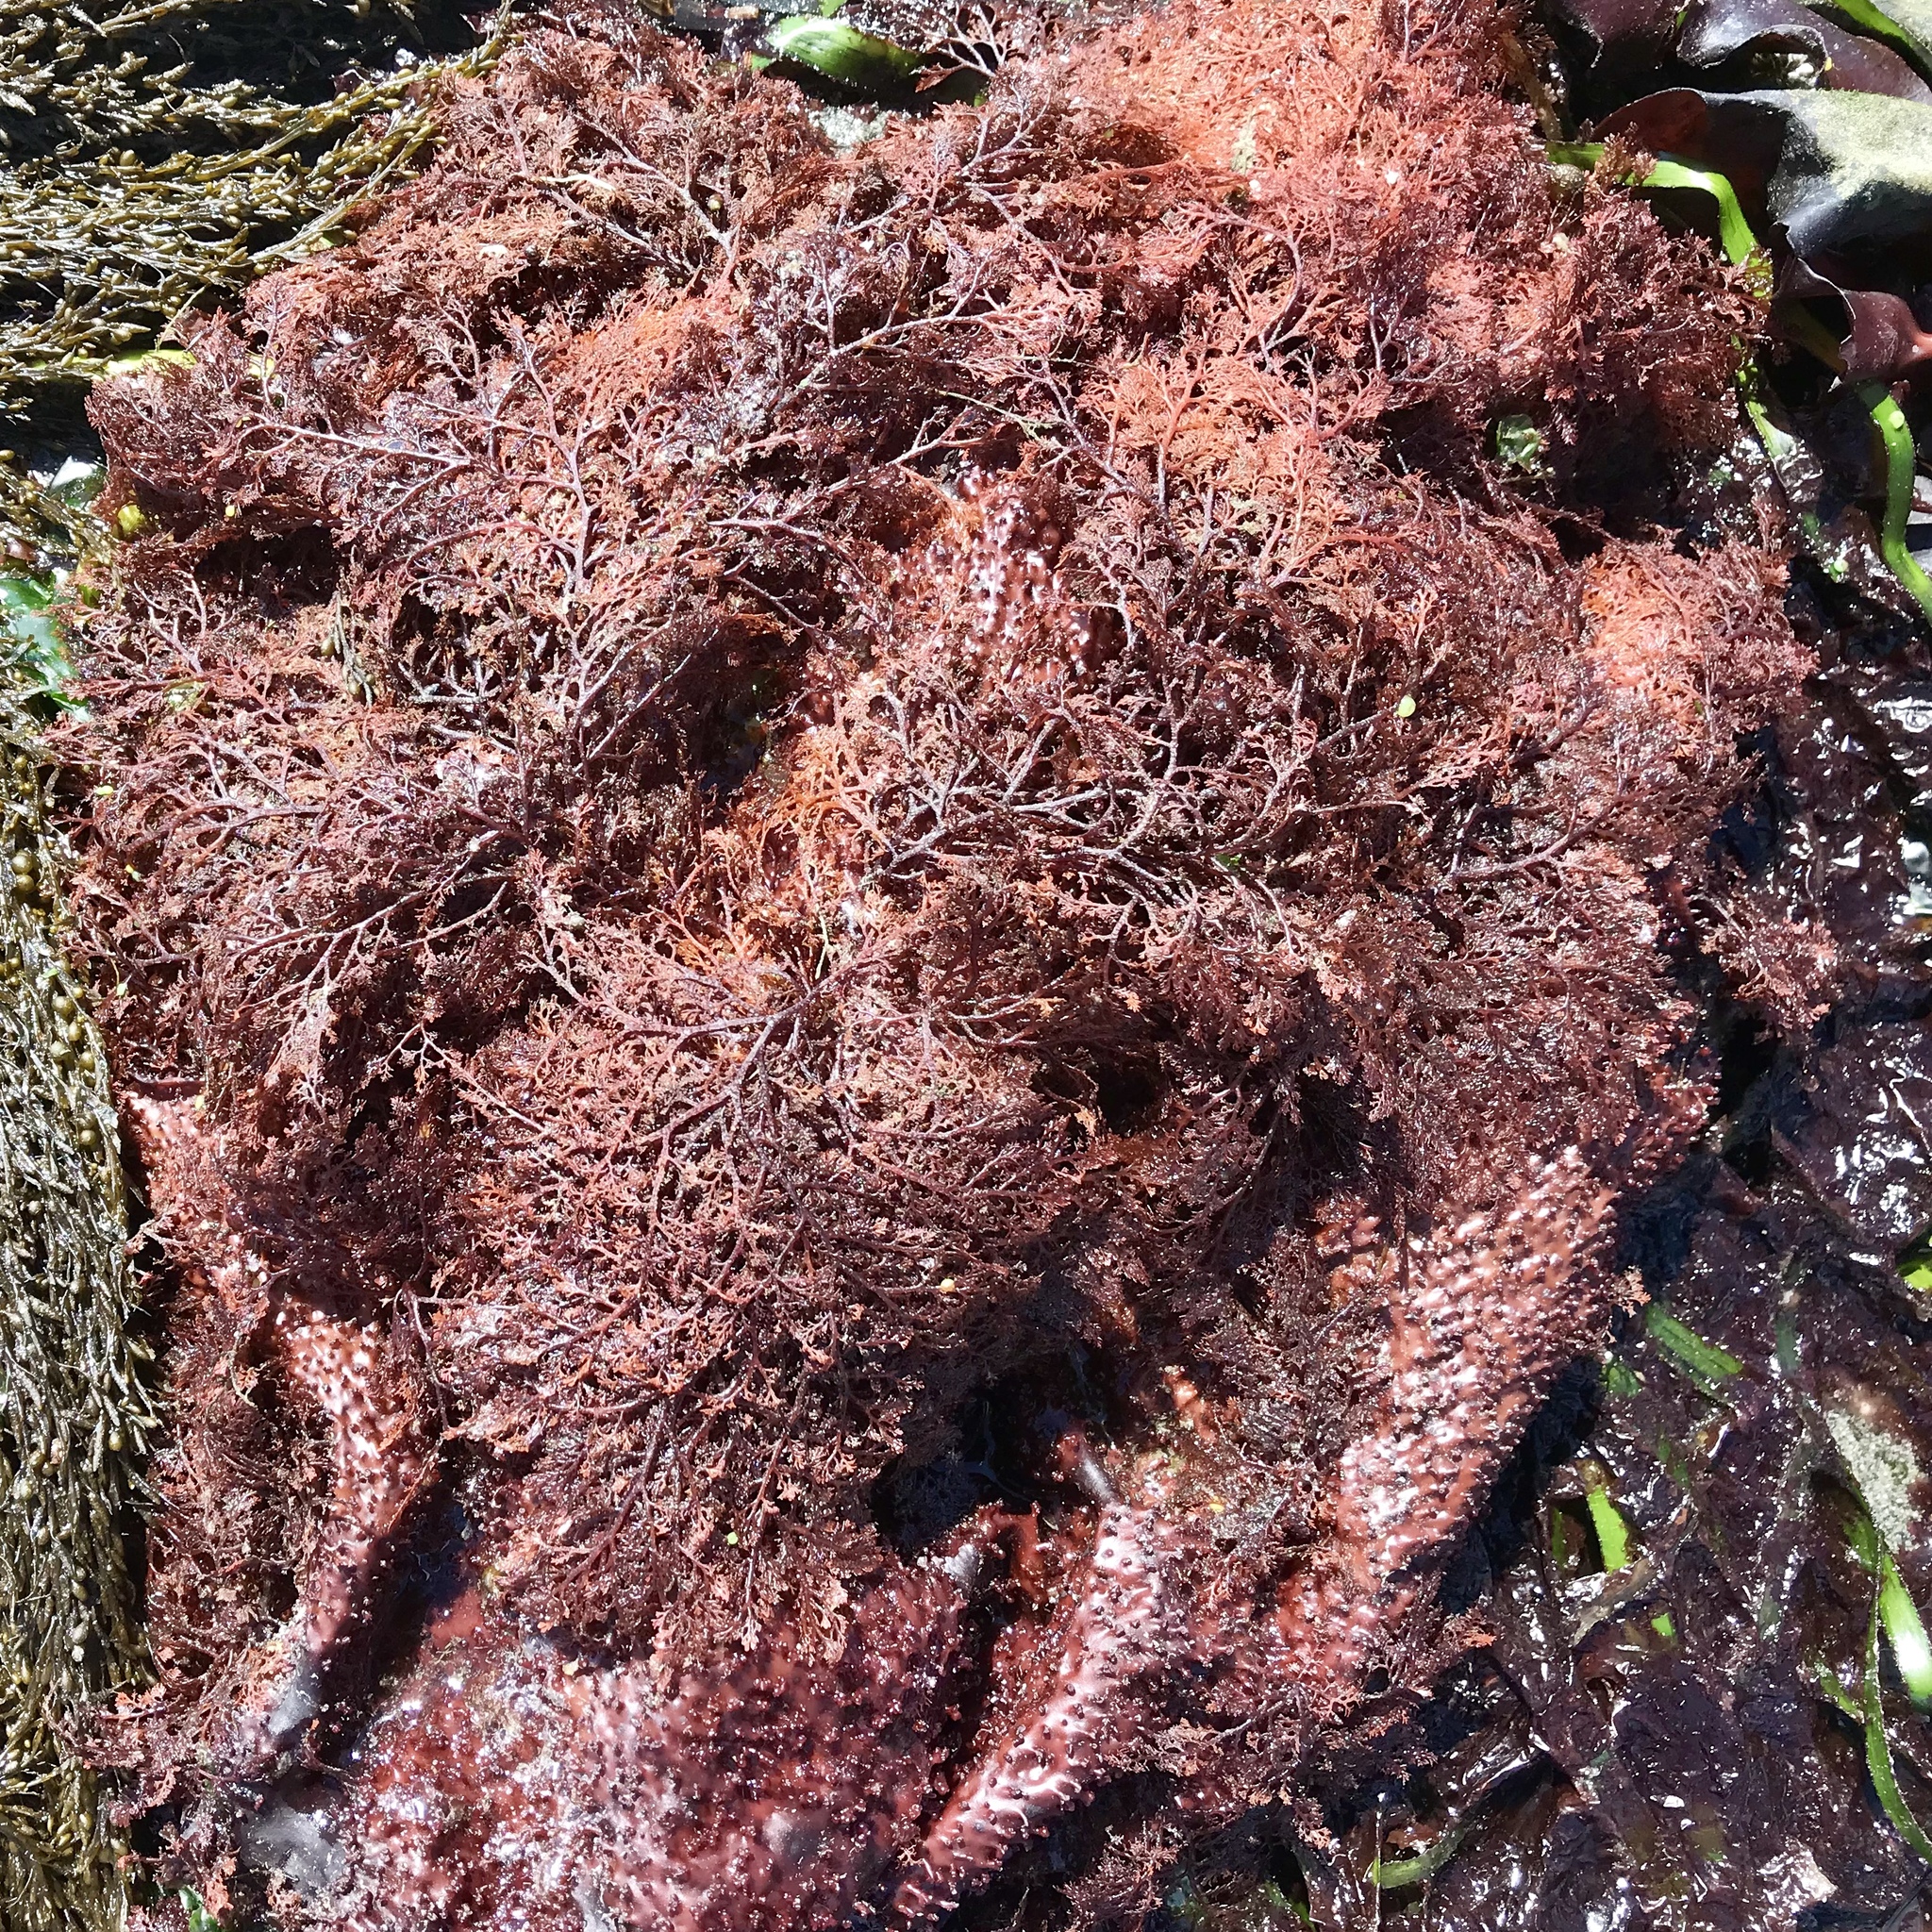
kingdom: Plantae
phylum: Rhodophyta
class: Florideophyceae
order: Ceramiales
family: Ceramiaceae
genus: Microcladia
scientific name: Microcladia coulteri
